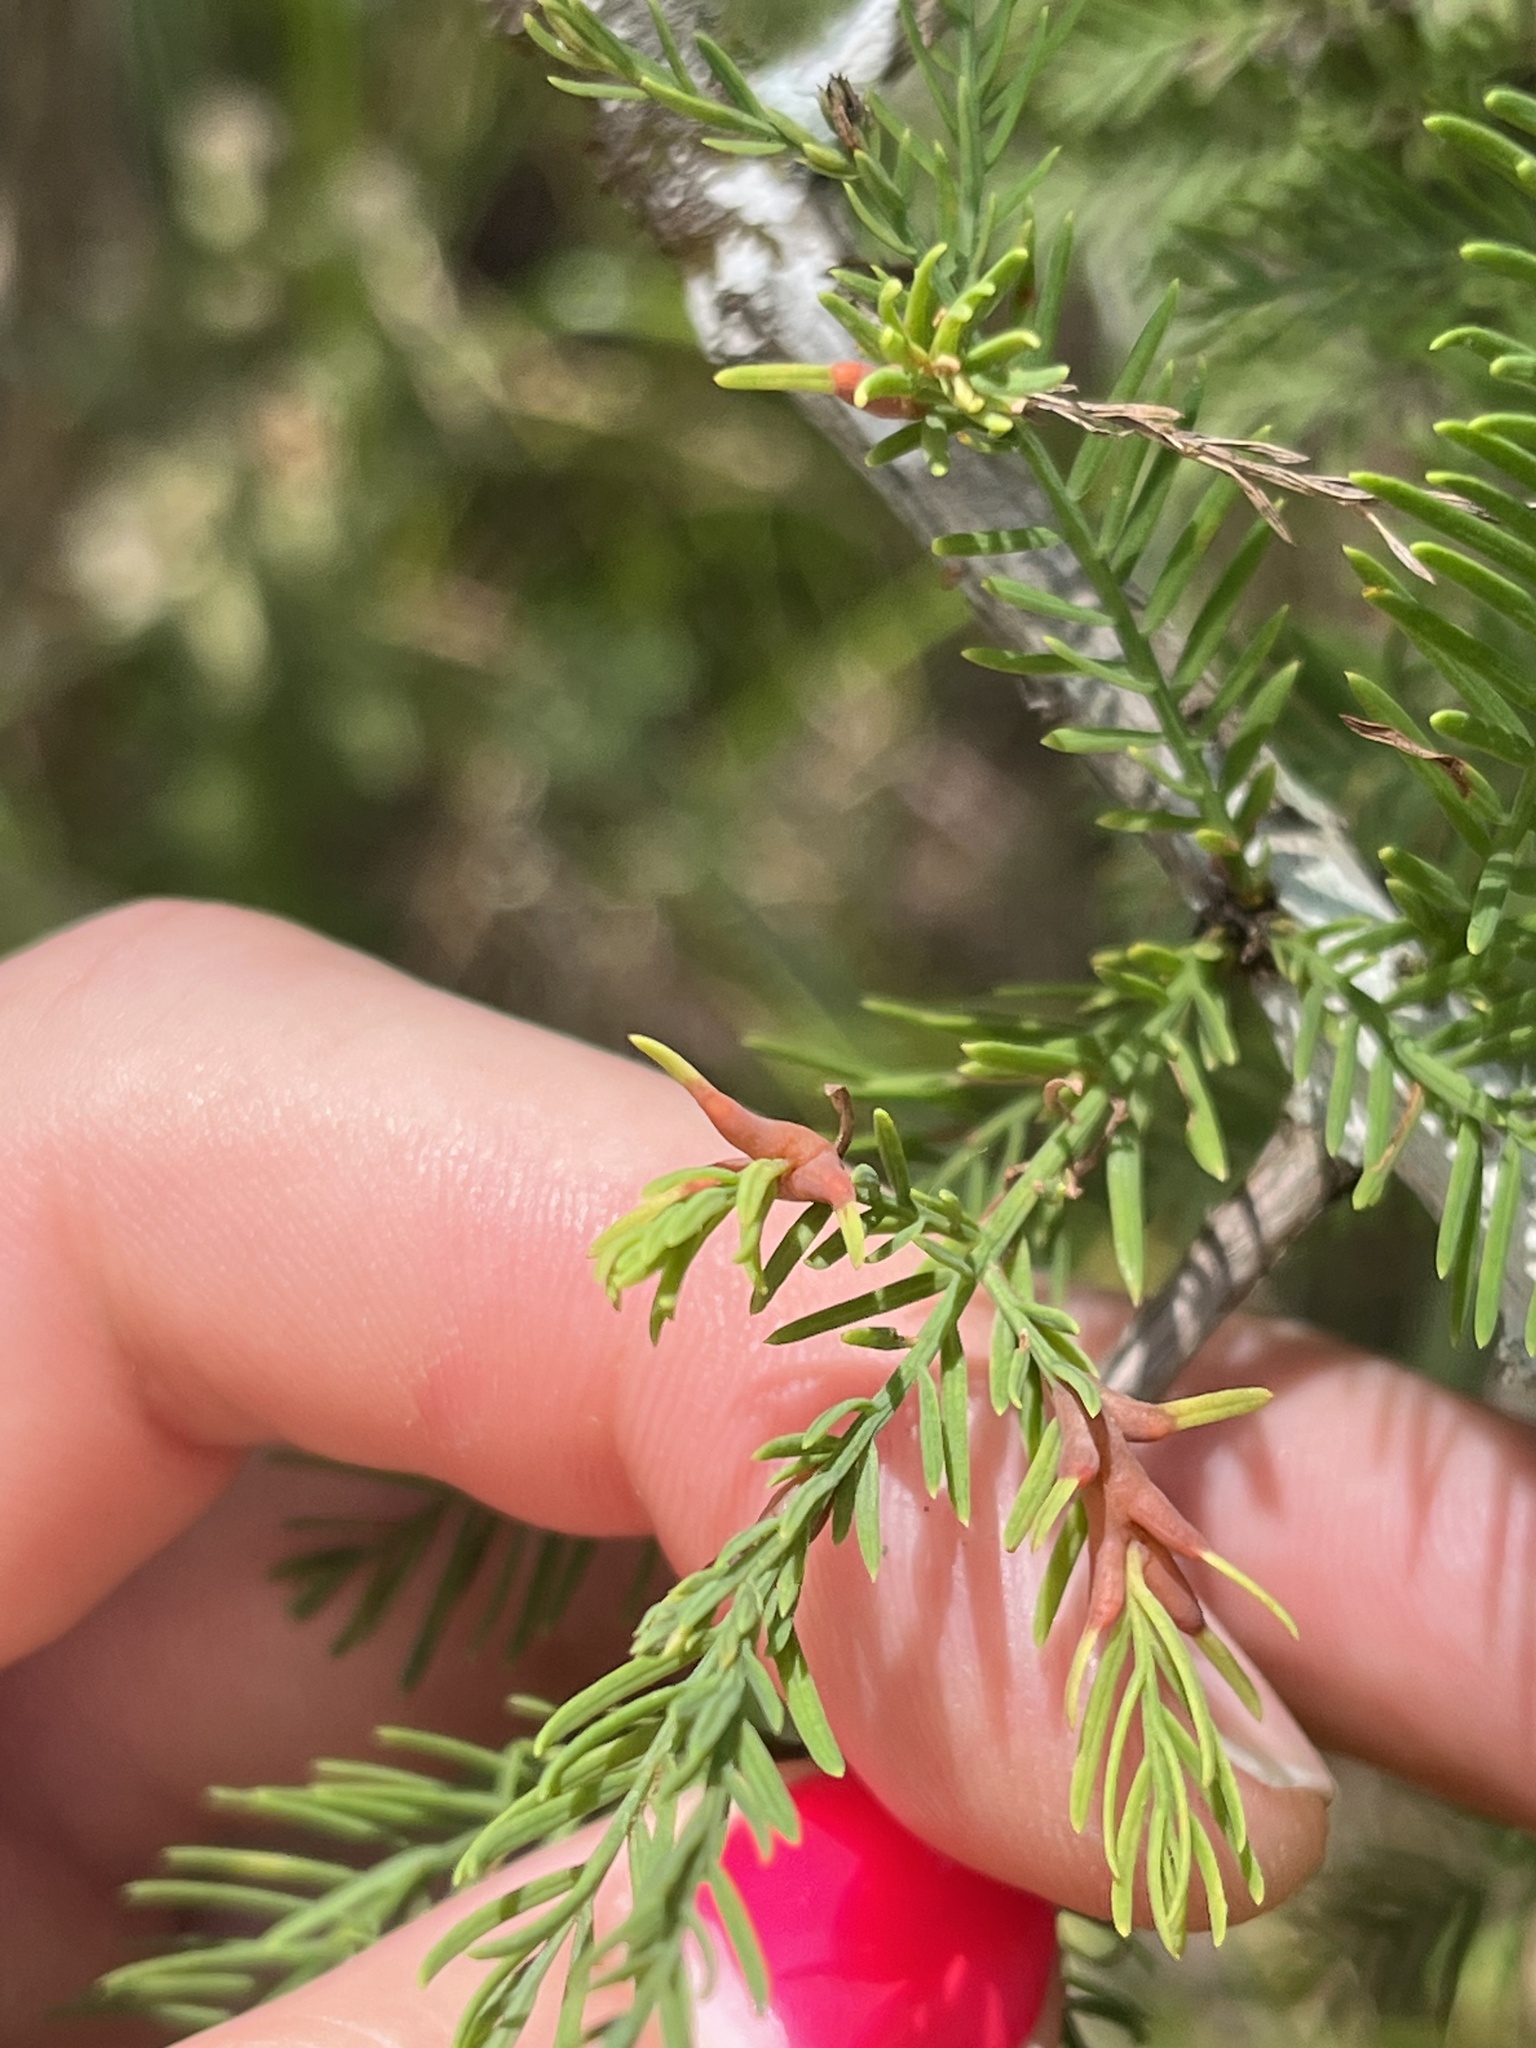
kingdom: Animalia
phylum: Arthropoda
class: Insecta
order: Diptera
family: Cecidomyiidae
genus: Taxodiomyia
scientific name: Taxodiomyia taxodii
